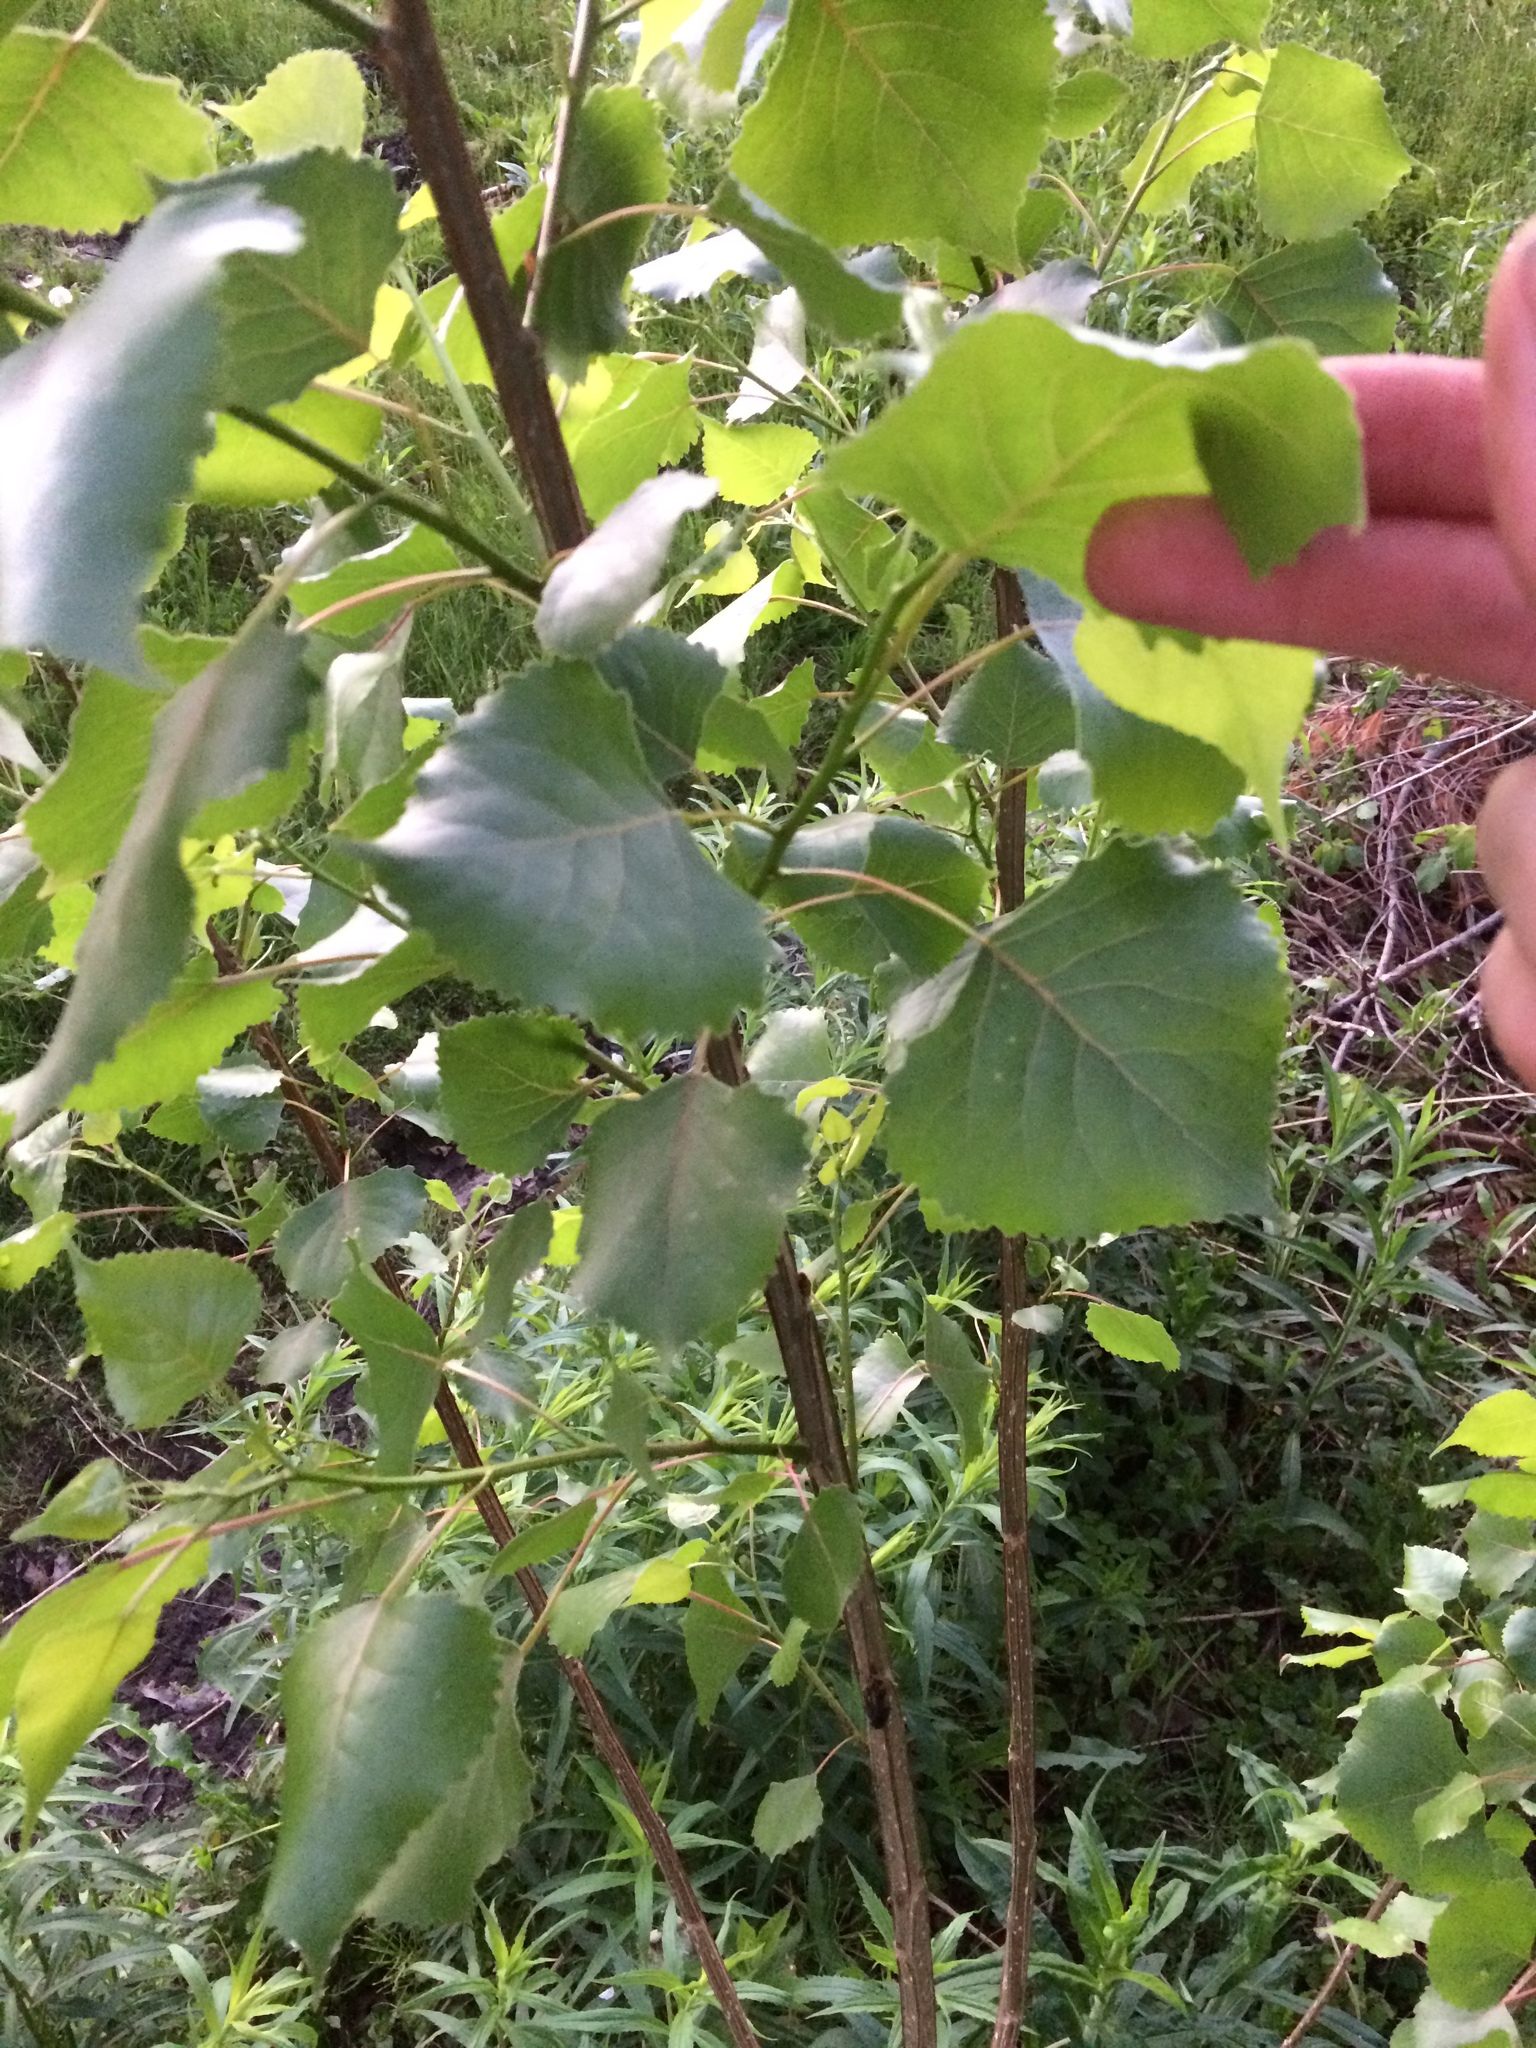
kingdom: Plantae
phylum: Tracheophyta
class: Magnoliopsida
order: Malpighiales
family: Salicaceae
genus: Populus
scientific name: Populus deltoides
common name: Eastern cottonwood
